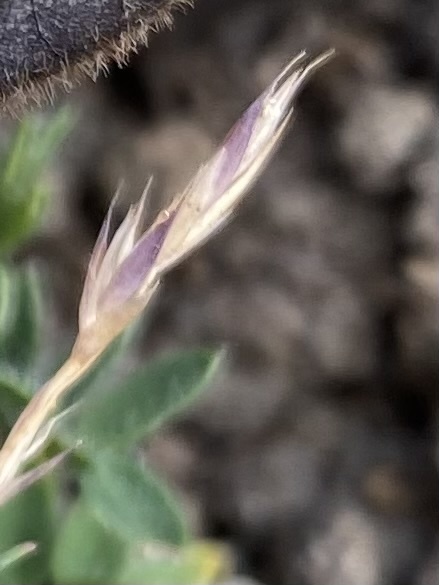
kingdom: Plantae
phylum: Tracheophyta
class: Liliopsida
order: Poales
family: Poaceae
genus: Festuca
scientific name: Festuca auriculata
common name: Eared fescue
